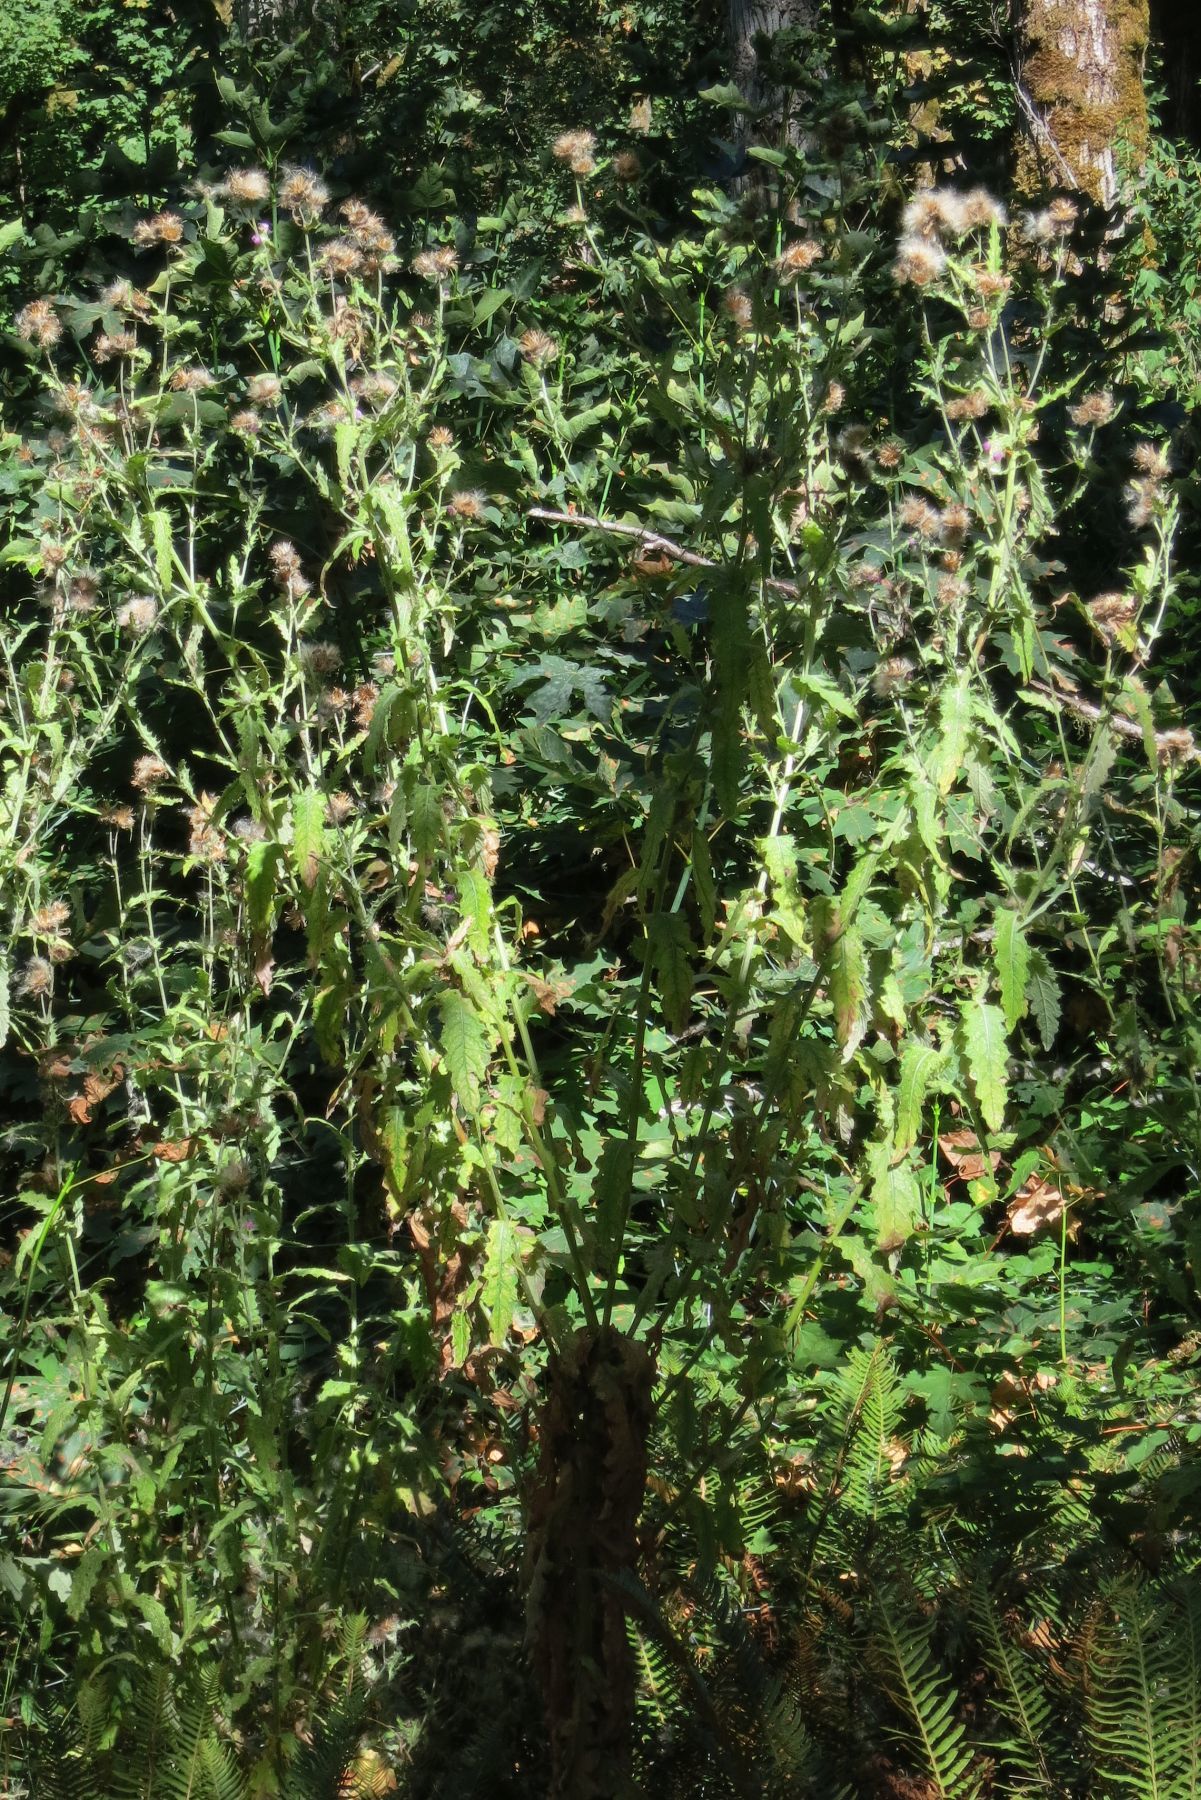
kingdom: Plantae
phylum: Tracheophyta
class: Magnoliopsida
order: Asterales
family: Asteraceae
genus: Cirsium
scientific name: Cirsium edule
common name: Indian thistle
